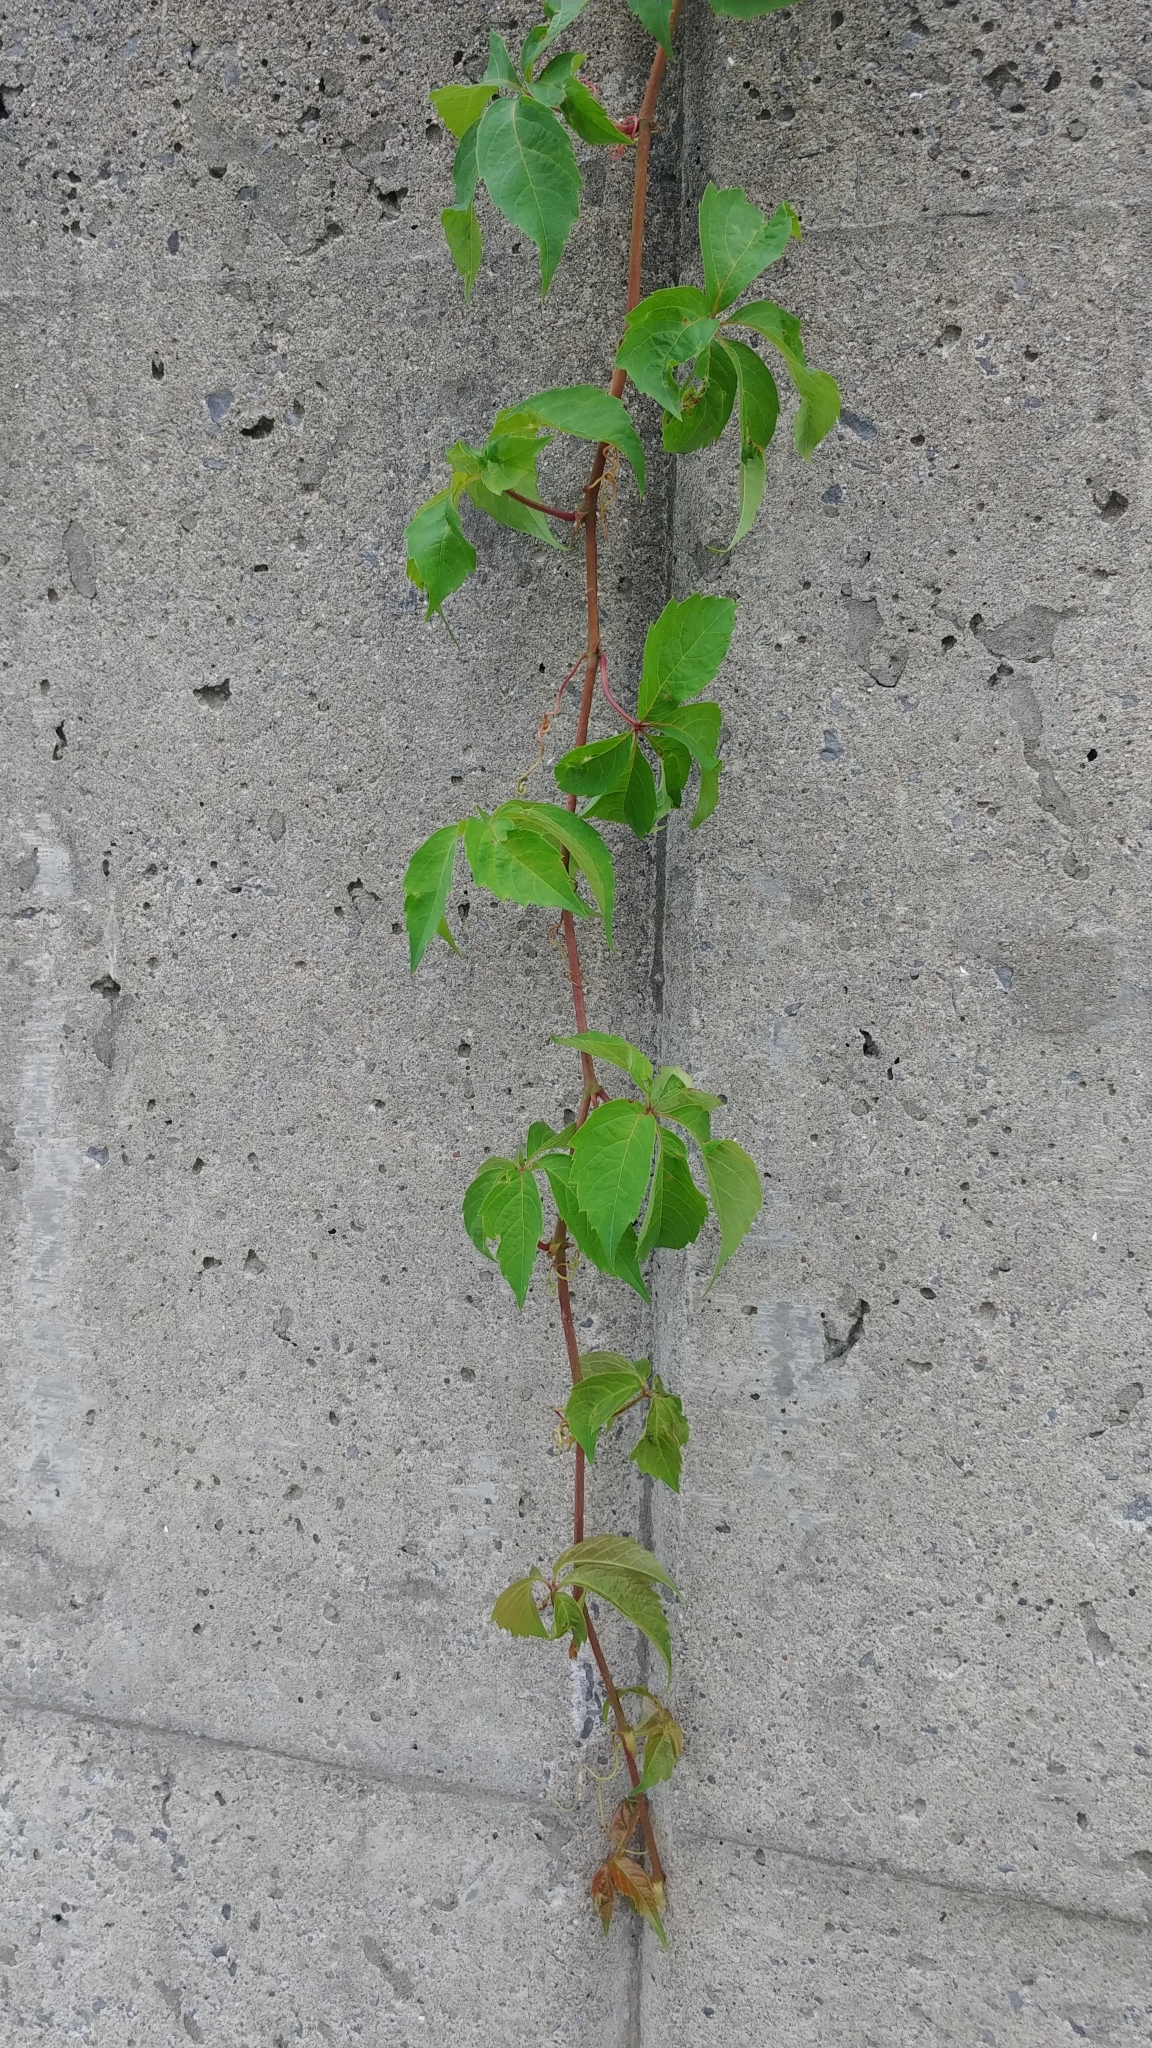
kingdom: Plantae
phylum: Tracheophyta
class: Magnoliopsida
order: Vitales
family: Vitaceae
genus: Parthenocissus
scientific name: Parthenocissus inserta
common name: False virginia-creeper
